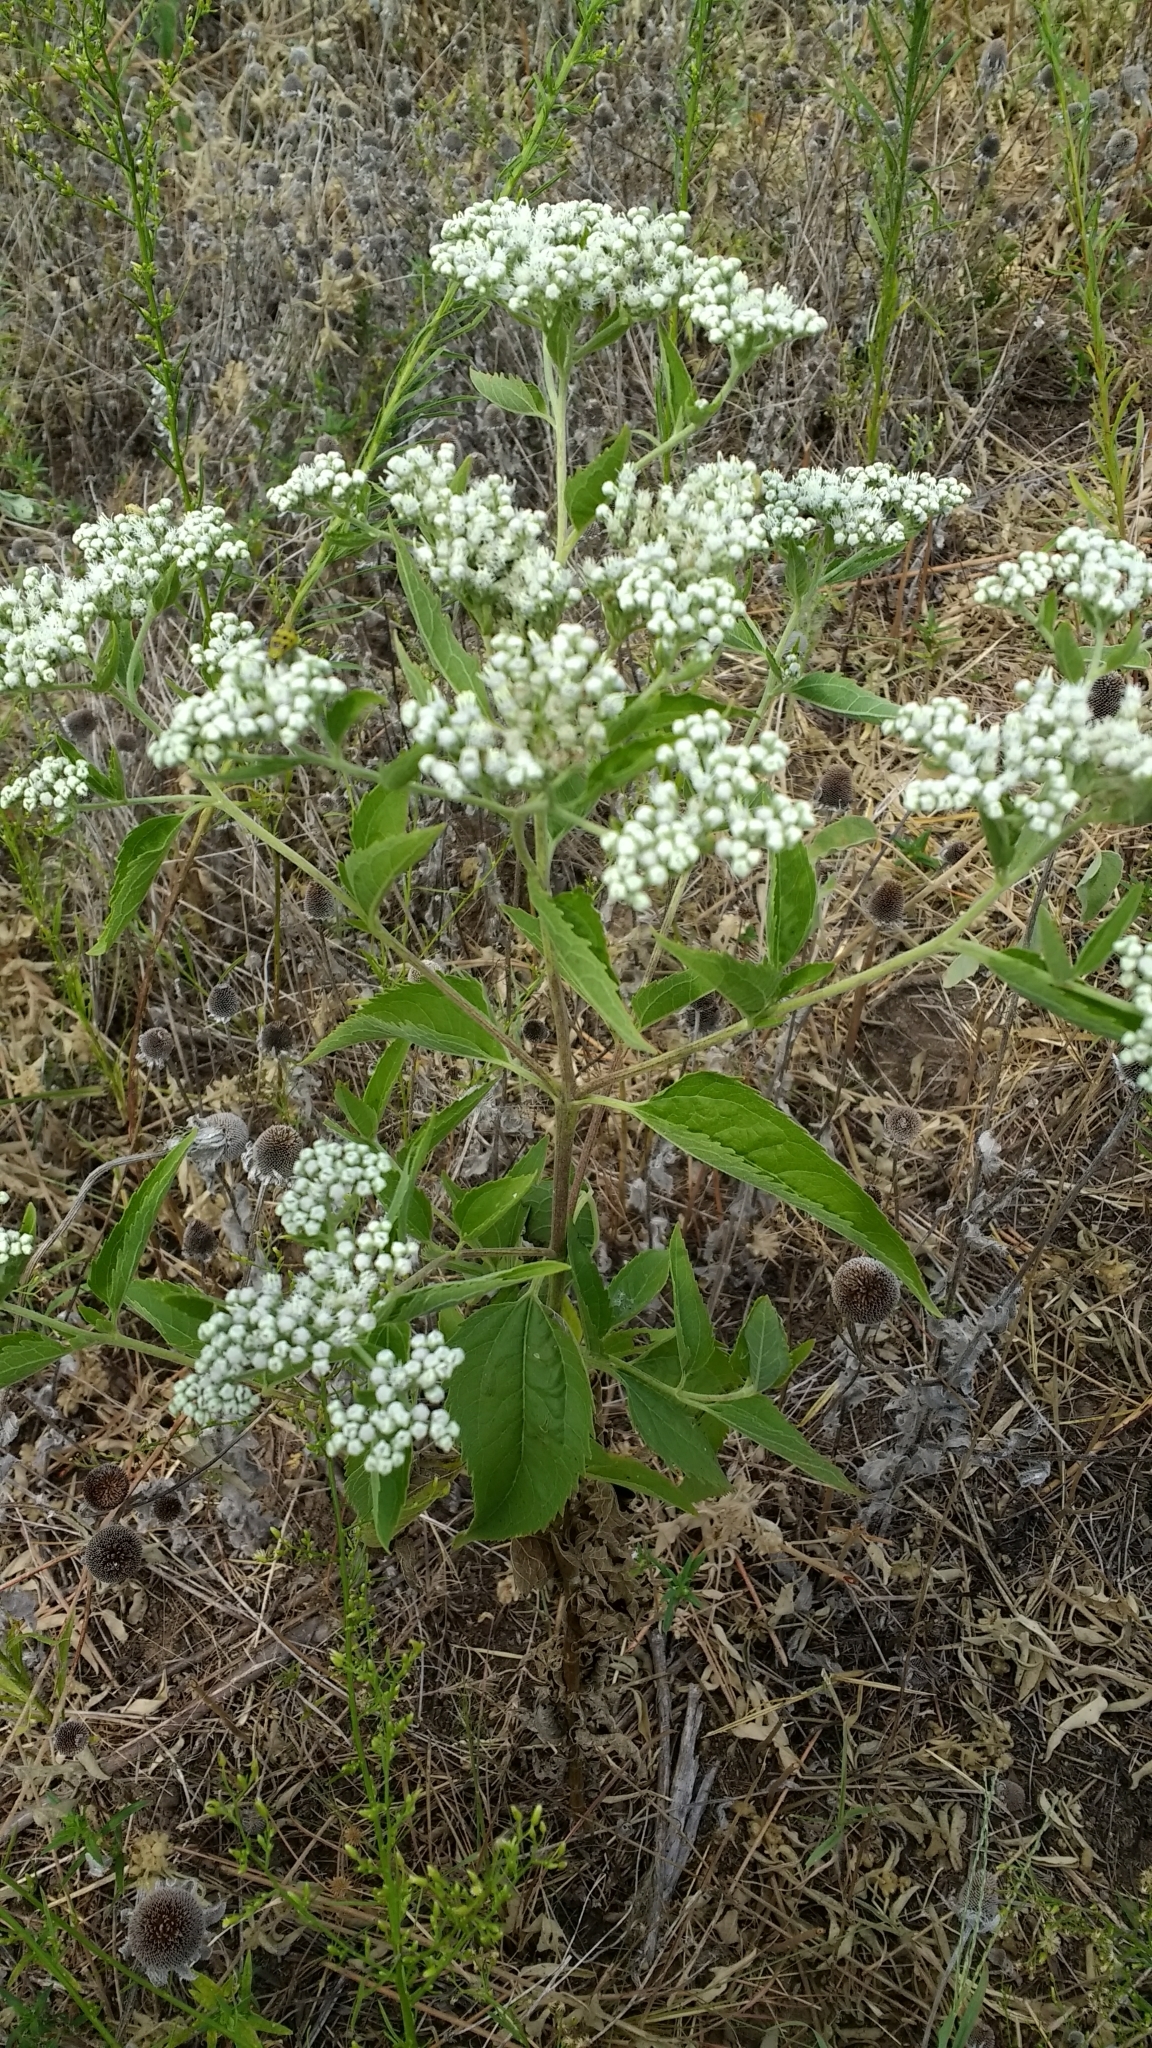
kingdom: Plantae
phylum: Tracheophyta
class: Magnoliopsida
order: Asterales
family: Asteraceae
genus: Eupatorium
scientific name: Eupatorium serotinum
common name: Late boneset
